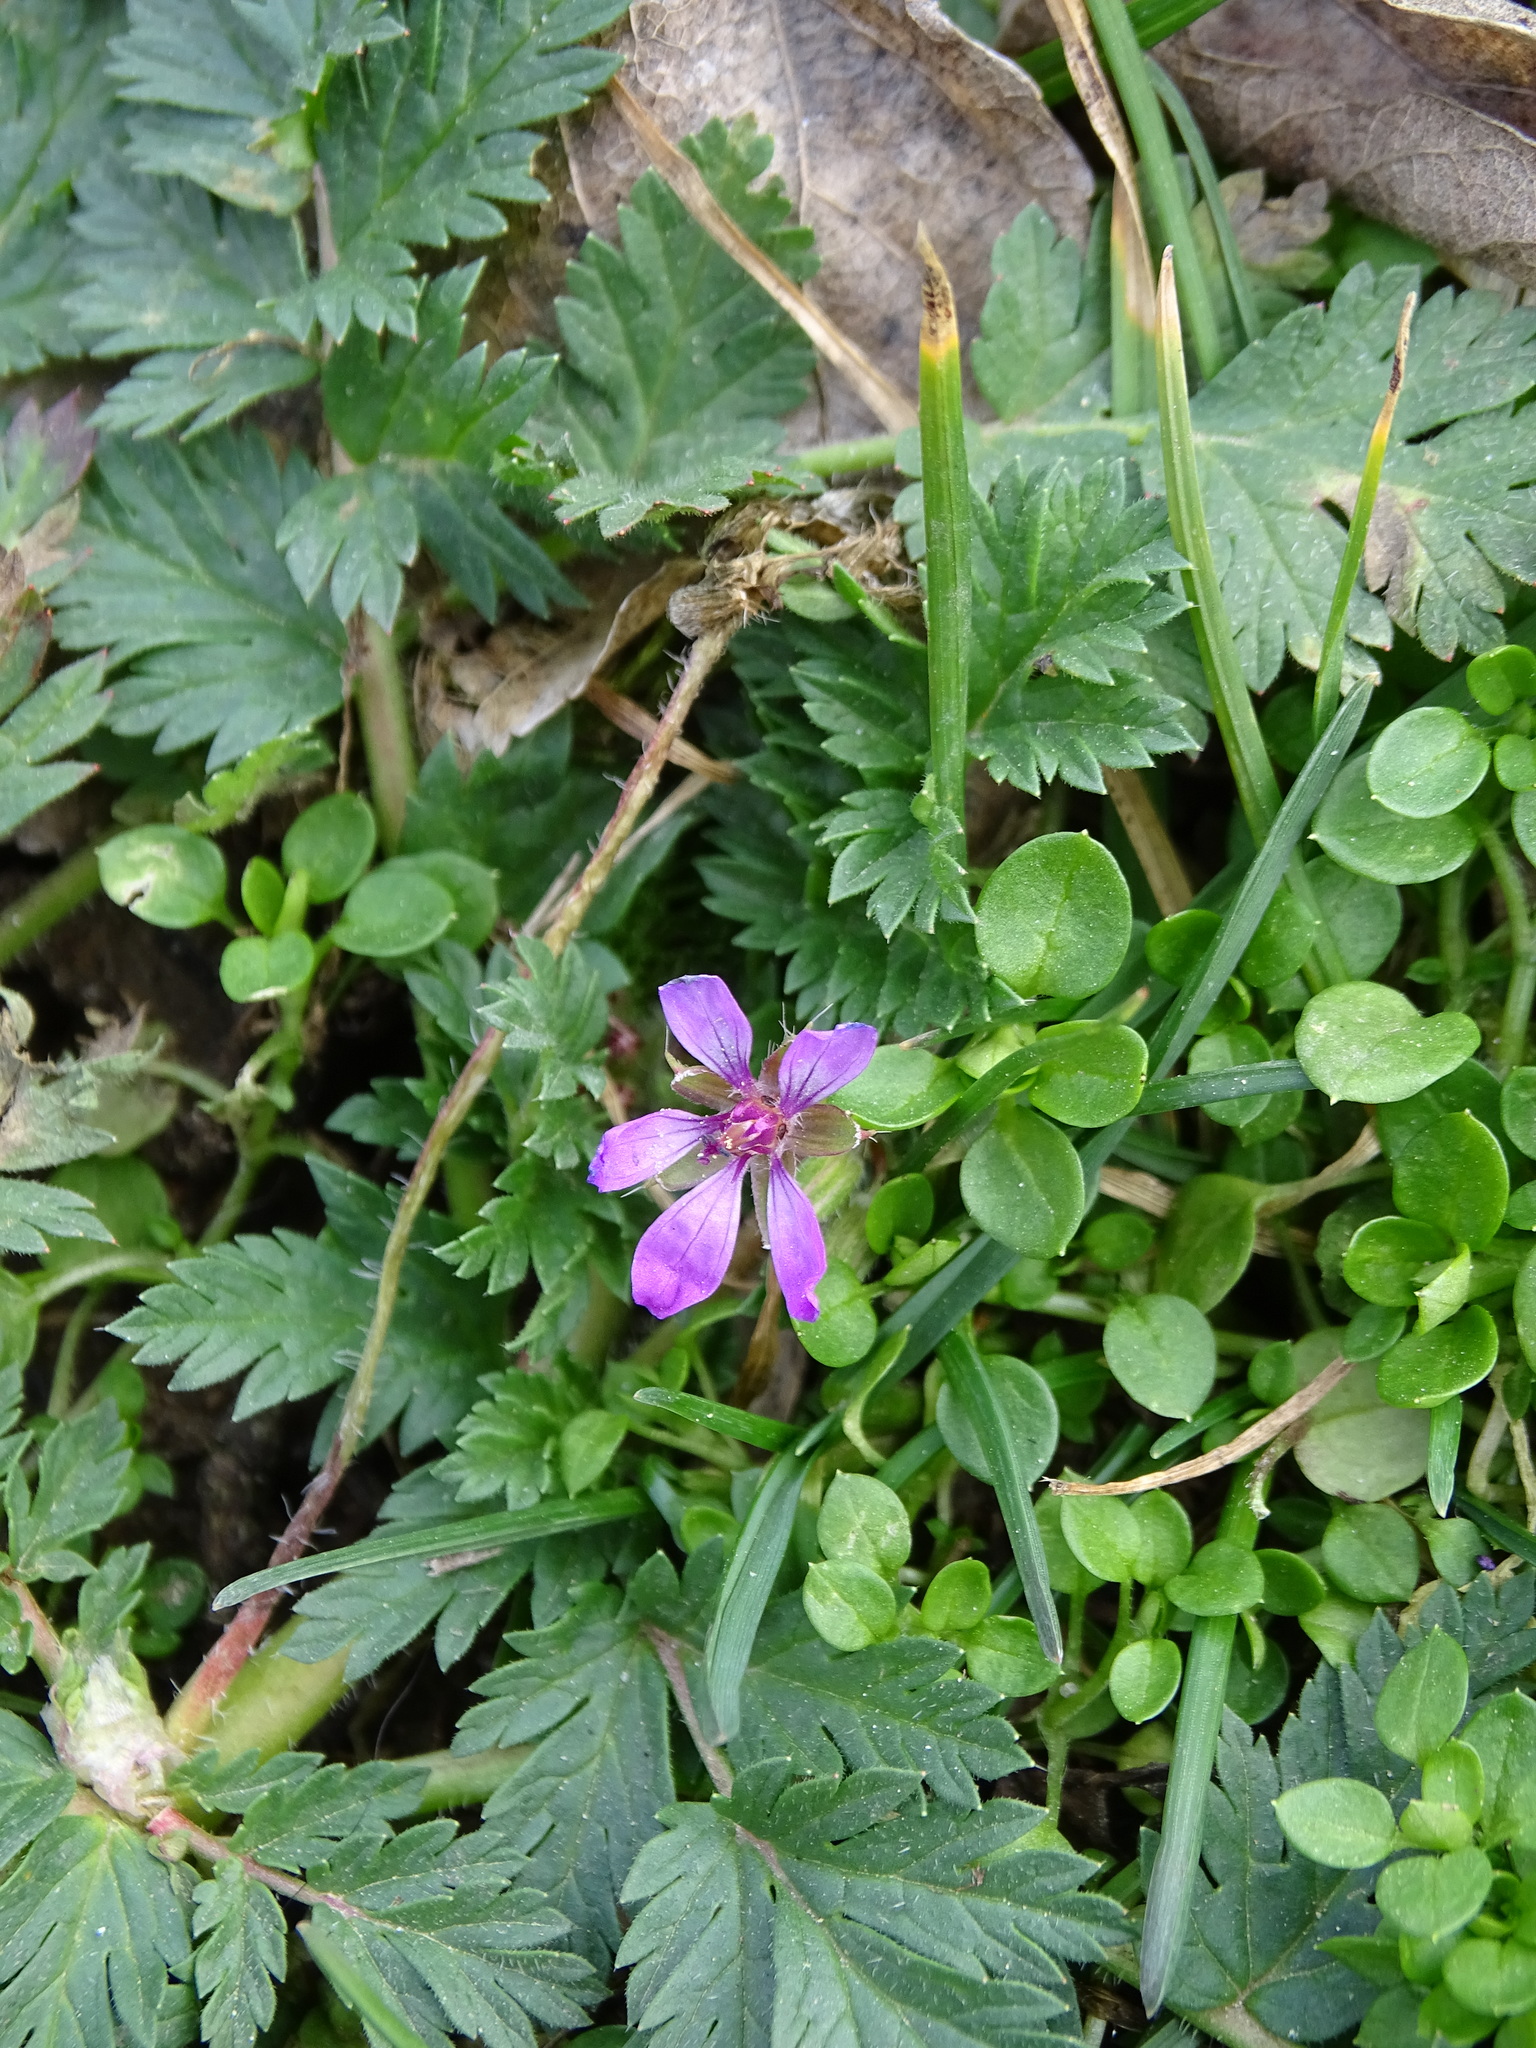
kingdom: Plantae
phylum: Tracheophyta
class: Magnoliopsida
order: Geraniales
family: Geraniaceae
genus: Erodium
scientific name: Erodium cicutarium
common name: Common stork's-bill
